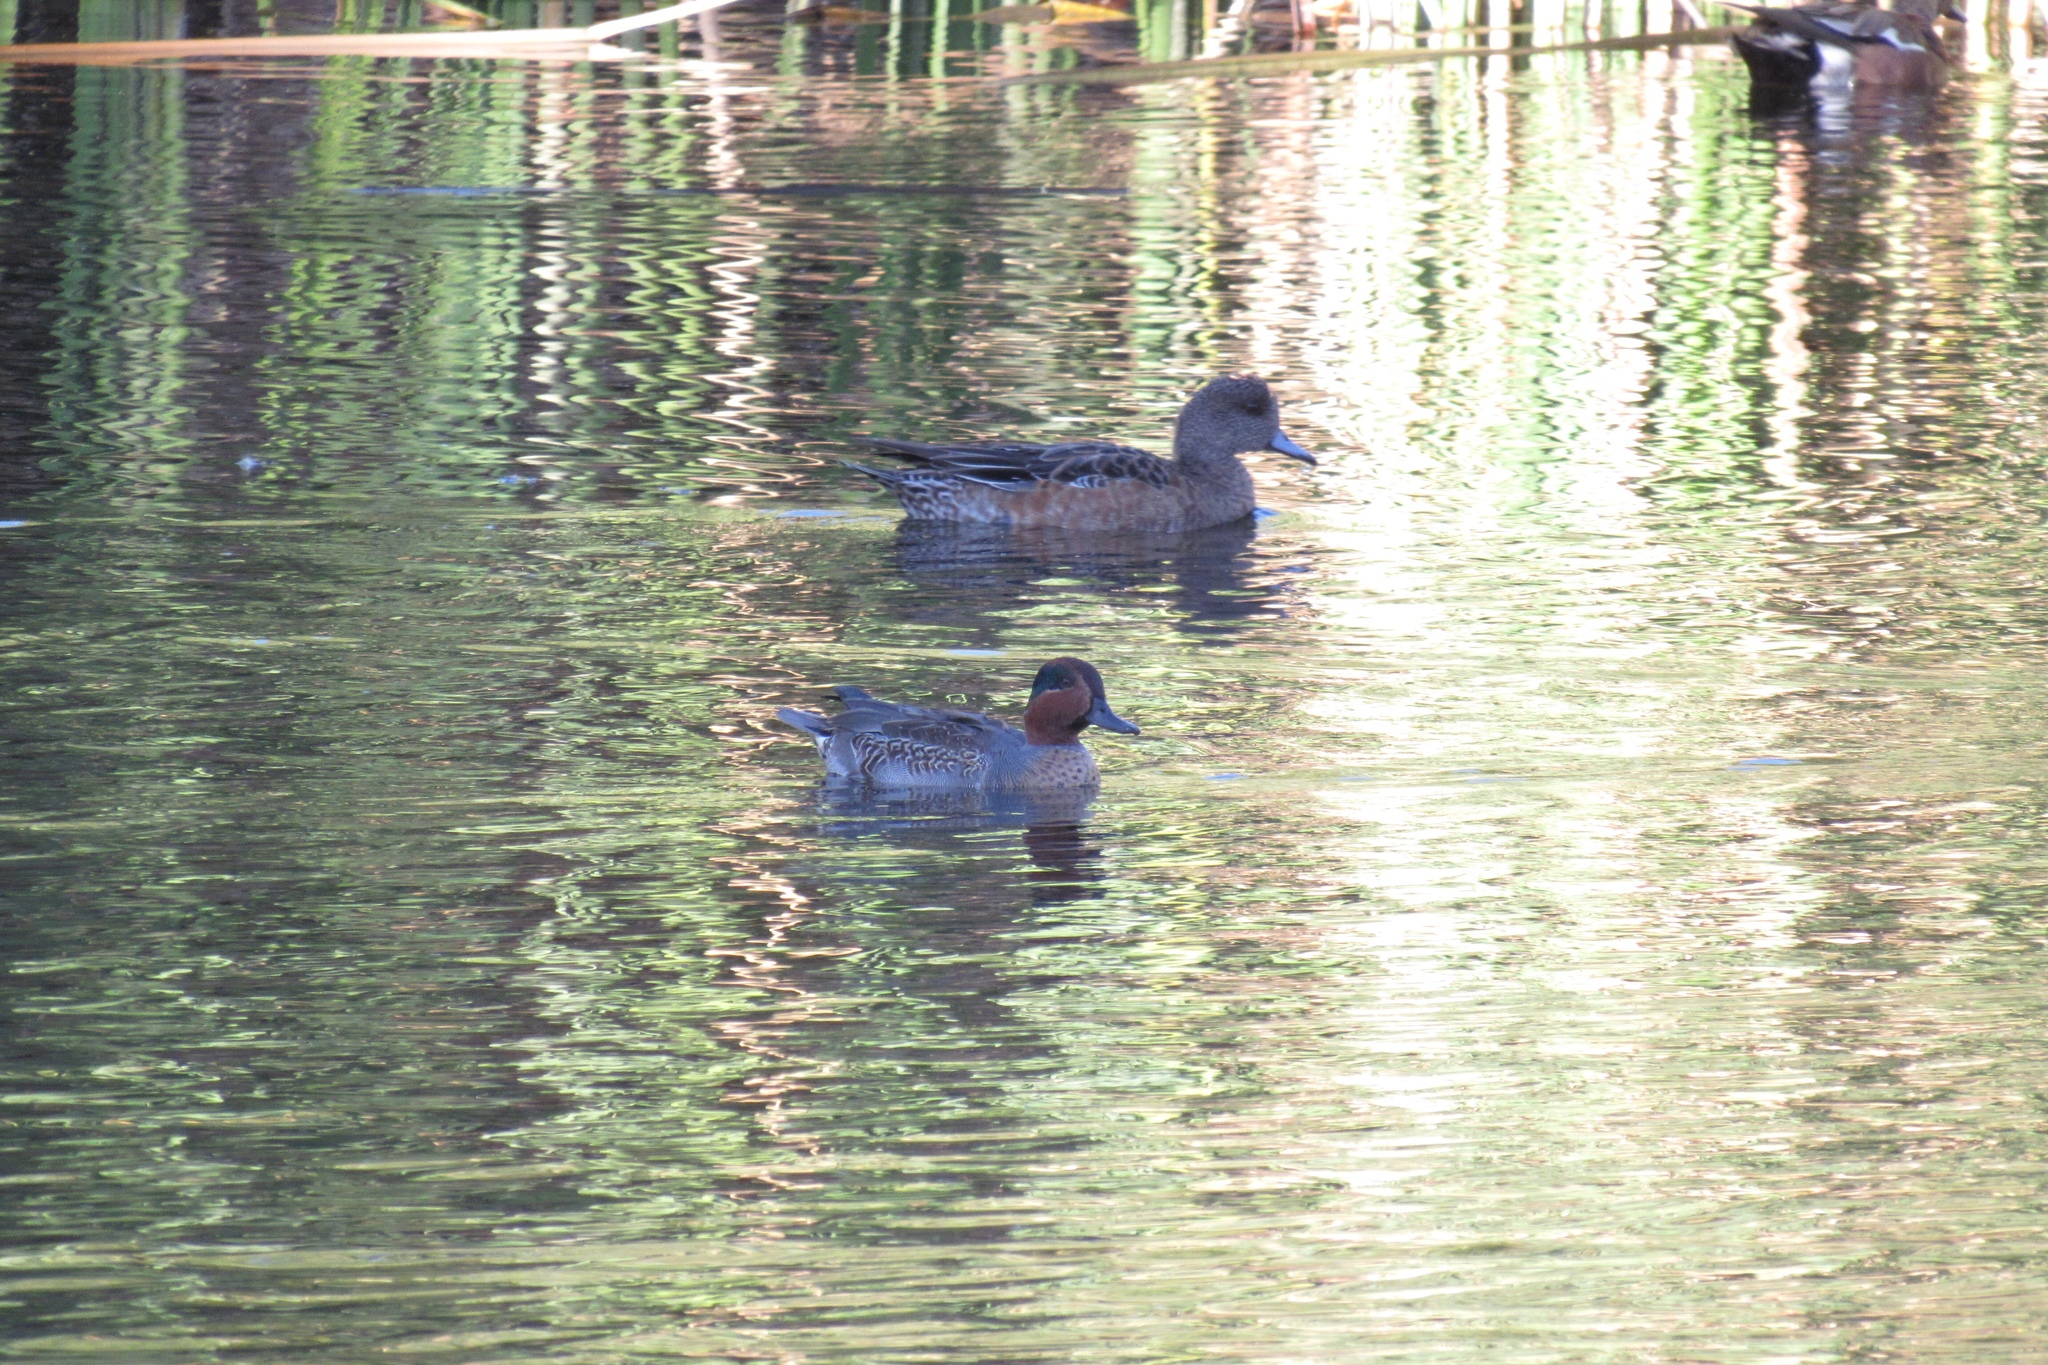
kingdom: Animalia
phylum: Chordata
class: Aves
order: Anseriformes
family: Anatidae
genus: Mareca
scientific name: Mareca americana
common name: American wigeon
